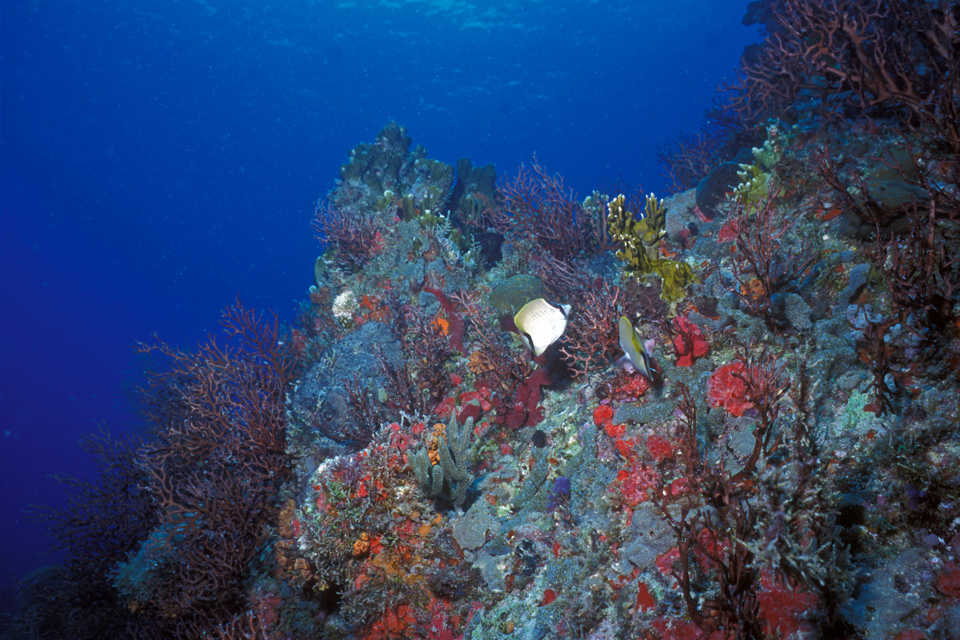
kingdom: Animalia
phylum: Chordata
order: Perciformes
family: Chaetodontidae
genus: Chaetodon
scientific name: Chaetodon sedentarius
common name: Reef butterflyfish
